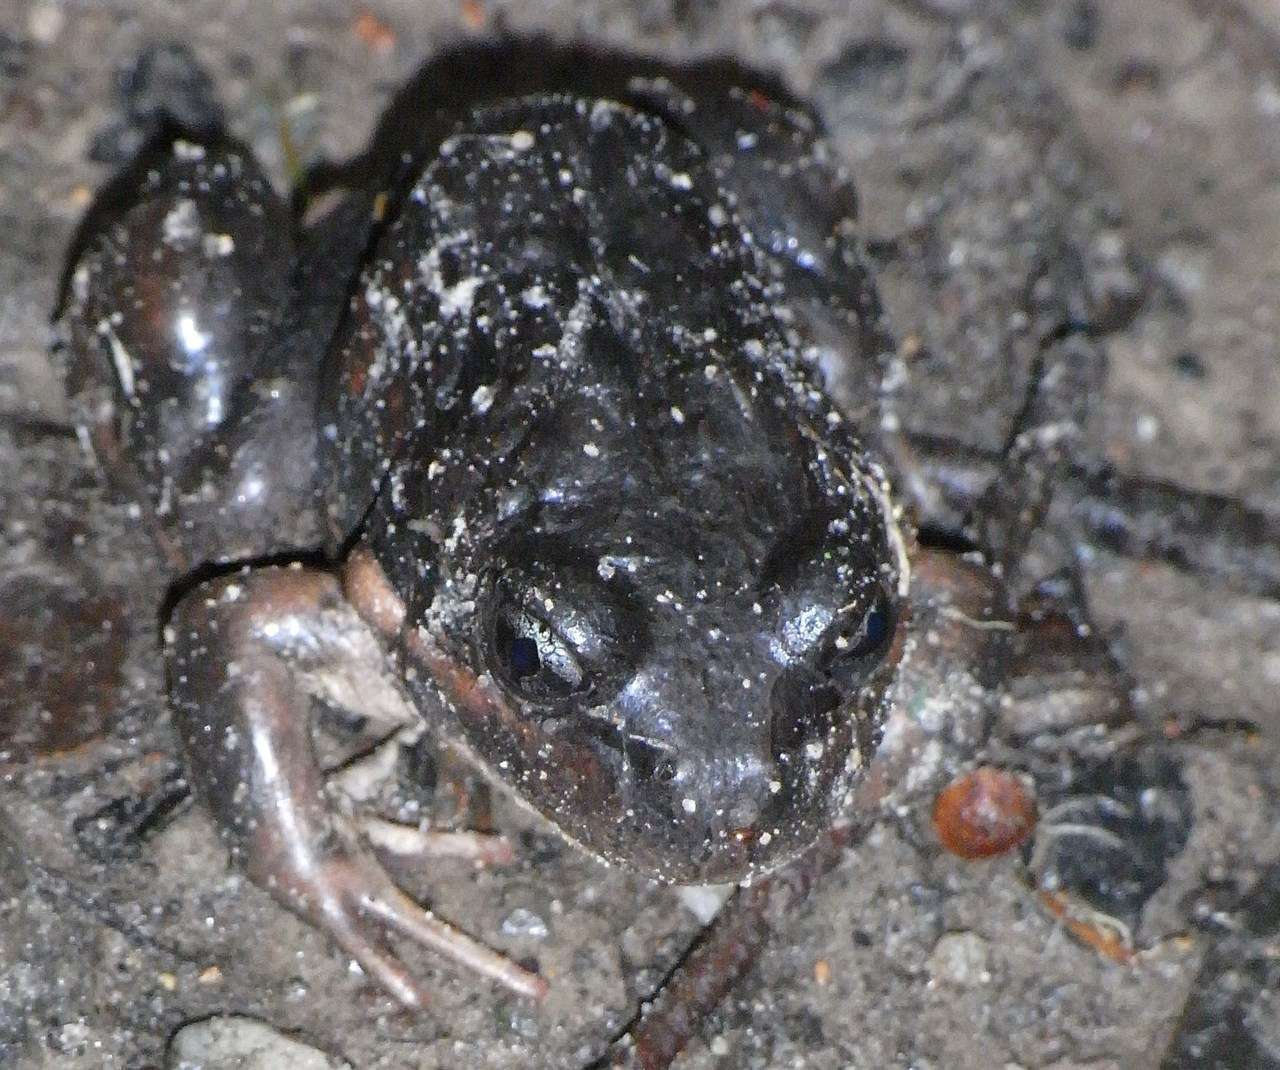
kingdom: Animalia
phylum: Chordata
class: Amphibia
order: Anura
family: Limnodynastidae
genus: Limnodynastes
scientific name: Limnodynastes dumerilii
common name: Banjo frog
